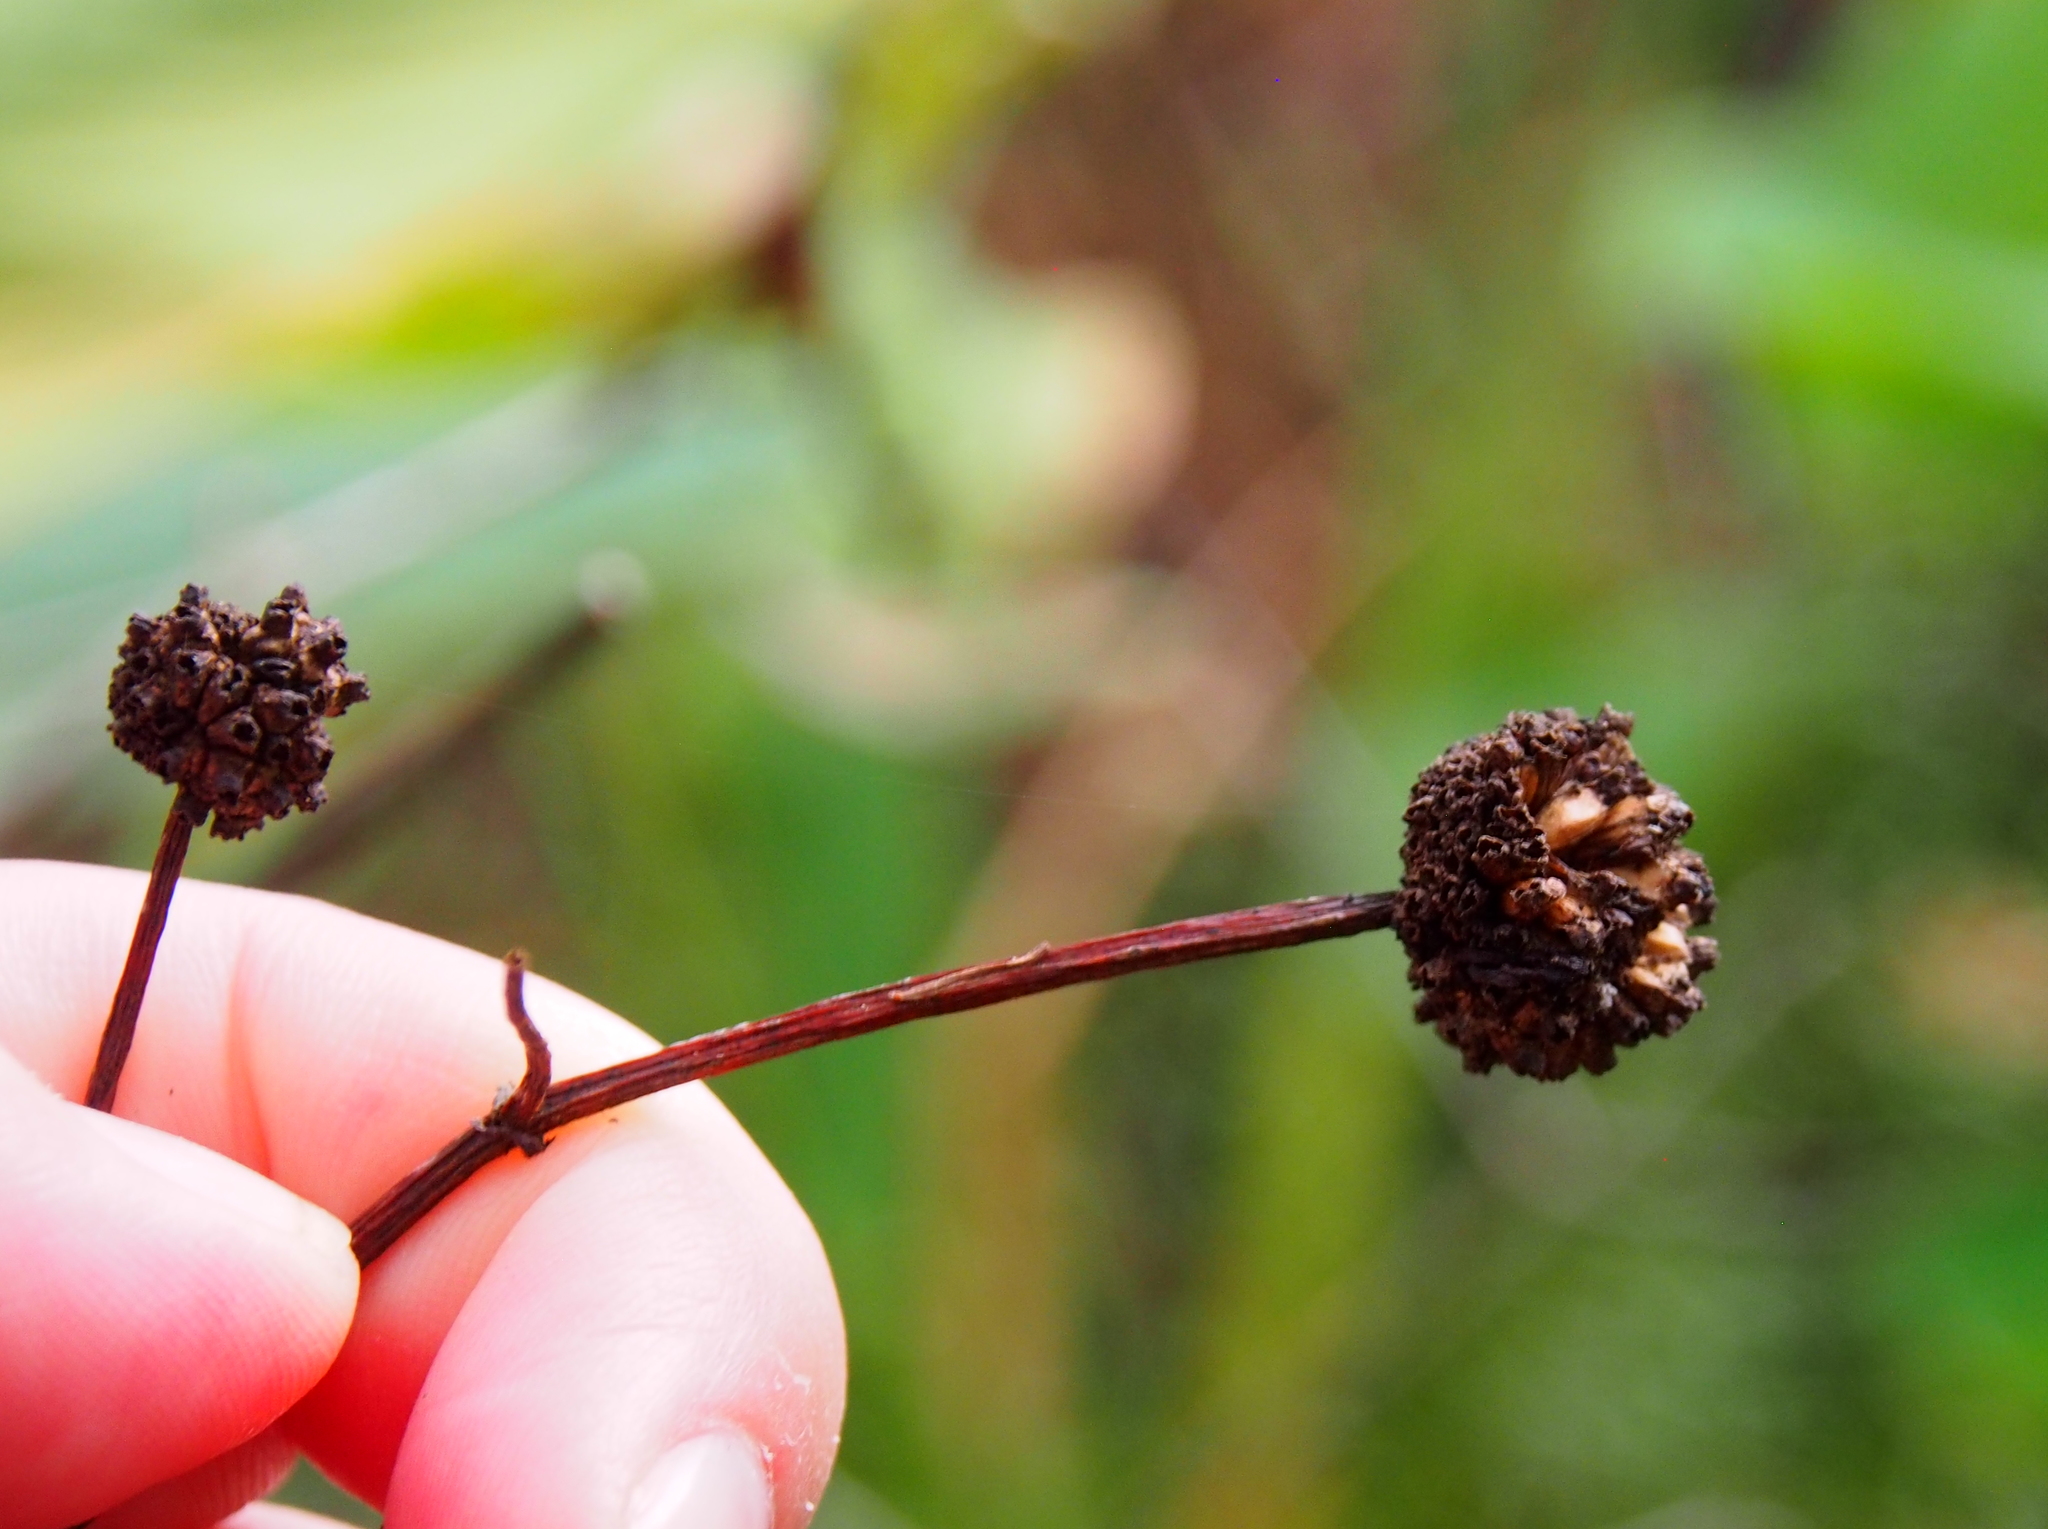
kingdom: Plantae
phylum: Tracheophyta
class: Magnoliopsida
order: Gentianales
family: Rubiaceae
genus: Cephalanthus
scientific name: Cephalanthus occidentalis
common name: Button-willow
